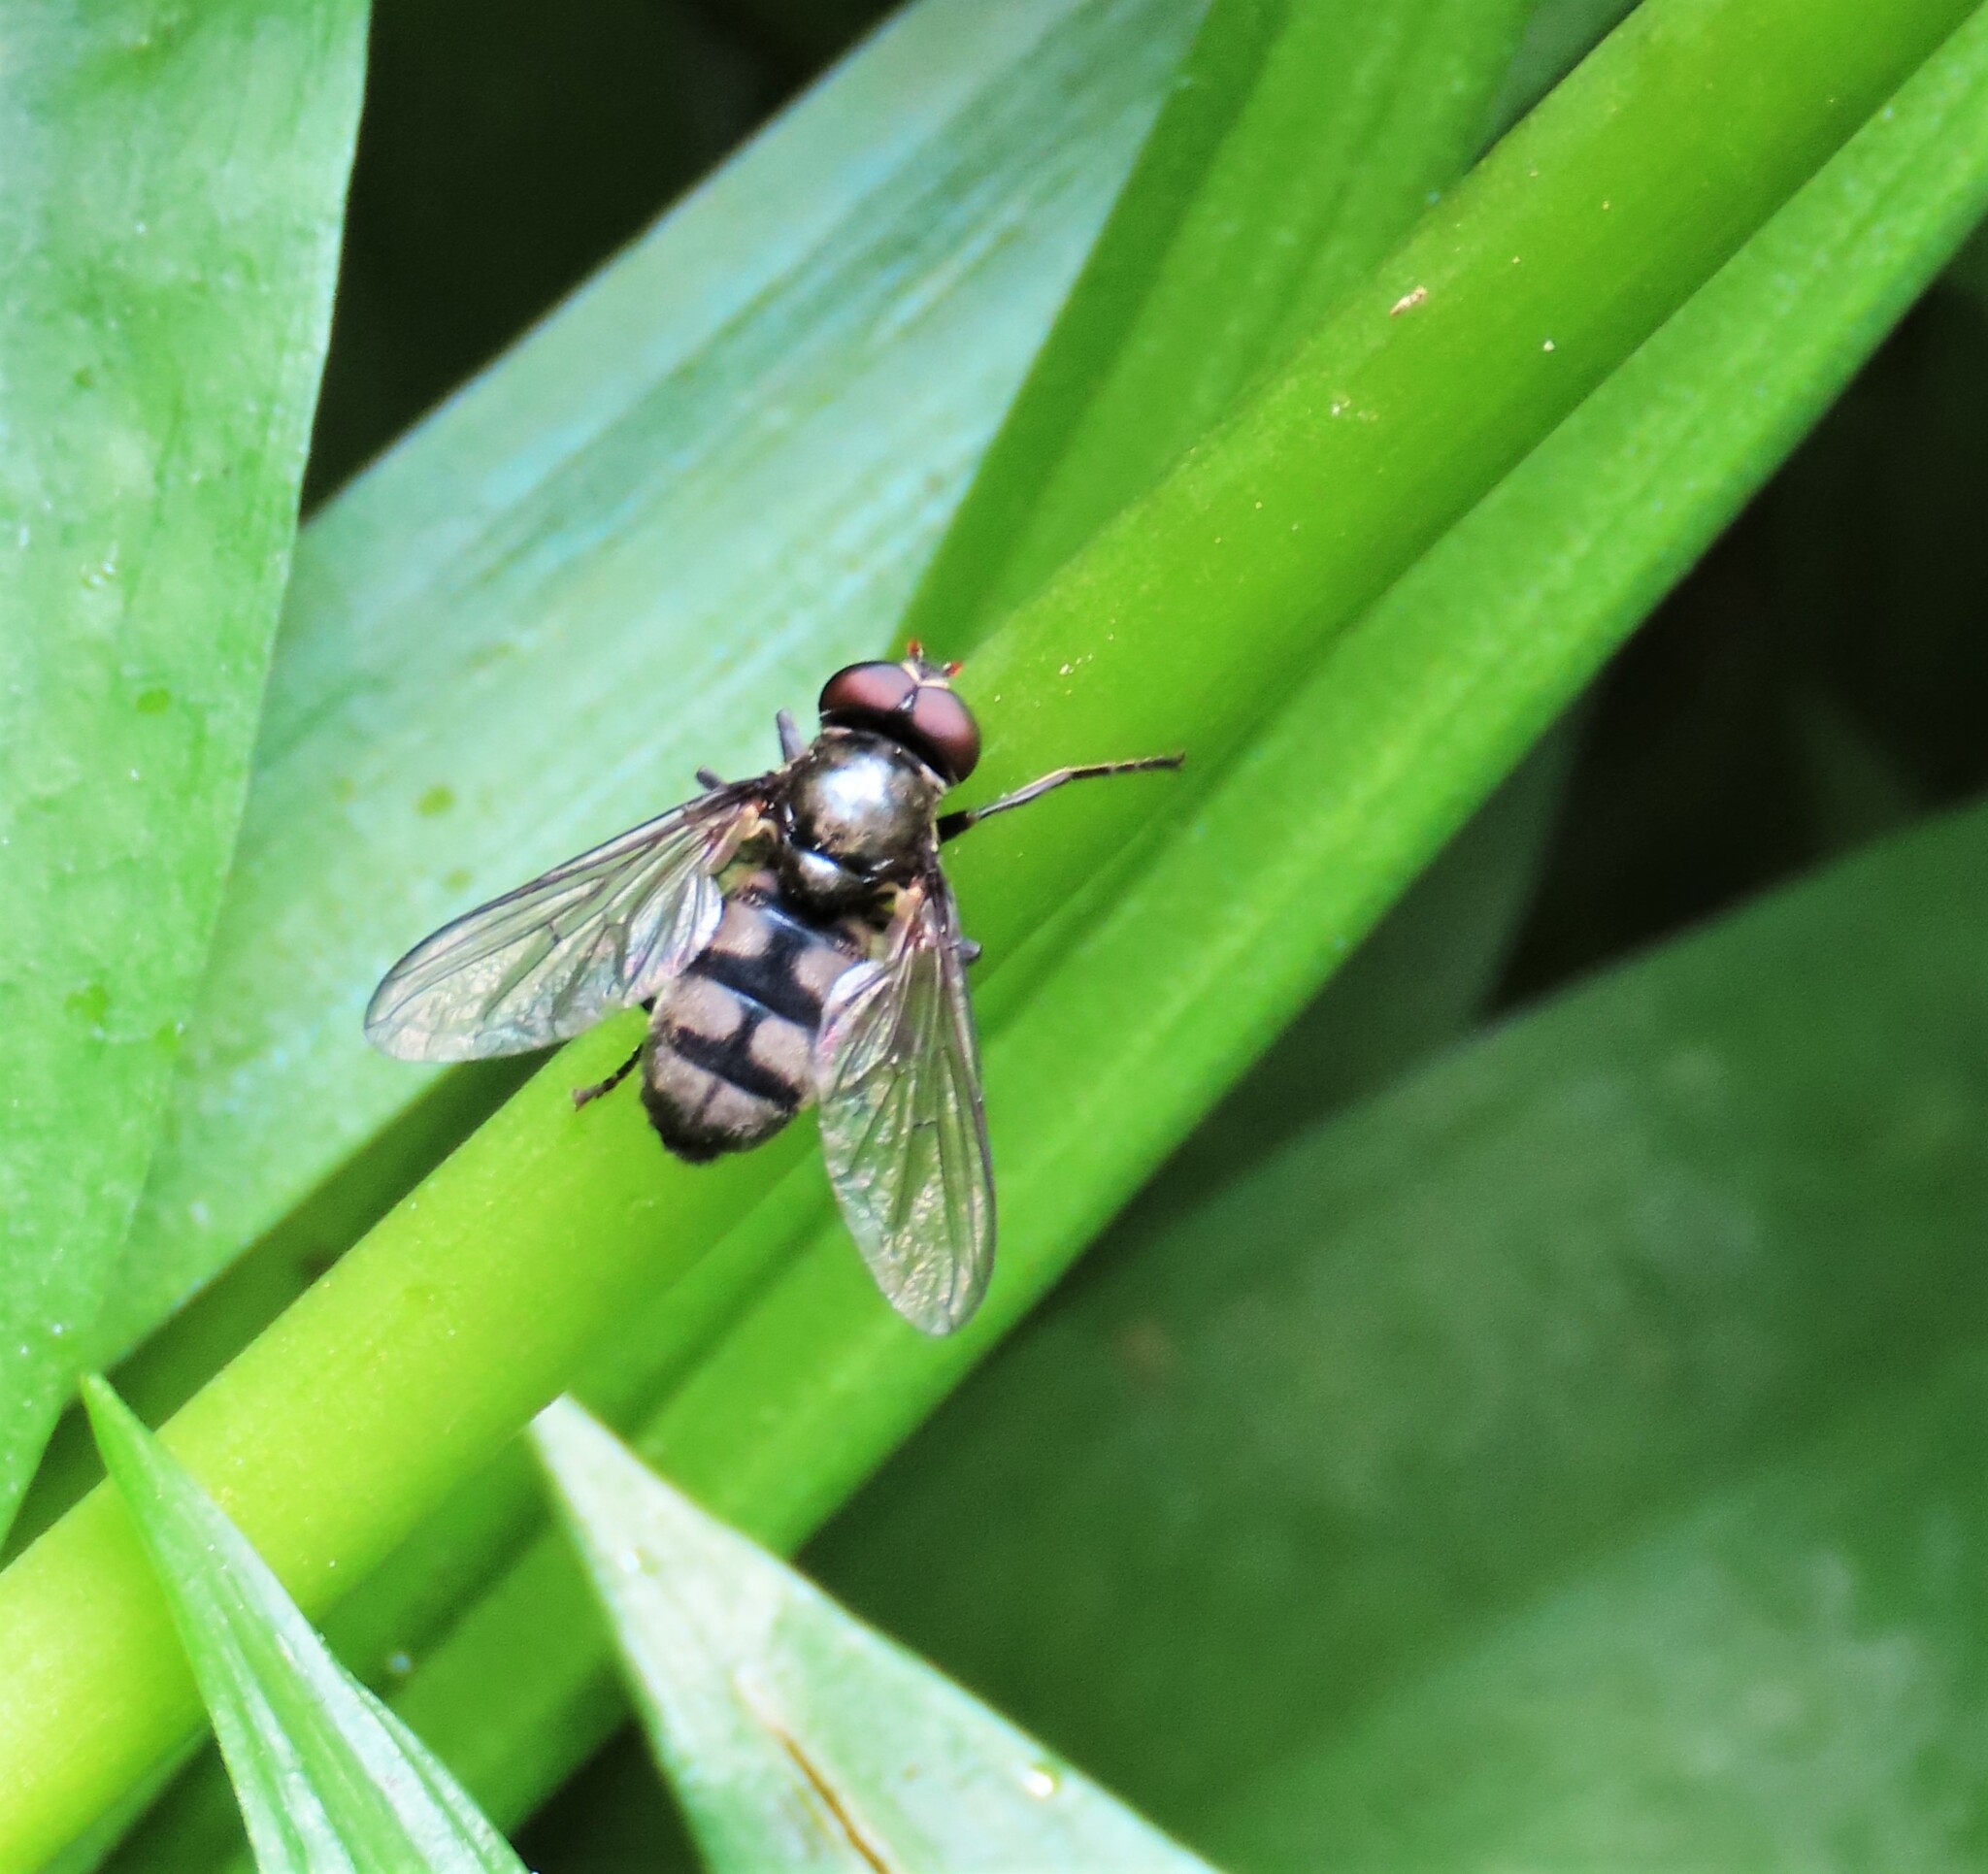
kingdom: Animalia
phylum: Arthropoda
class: Insecta
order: Diptera
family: Syrphidae
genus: Portevinia
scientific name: Portevinia maculata
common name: Ramson's hoverfly
